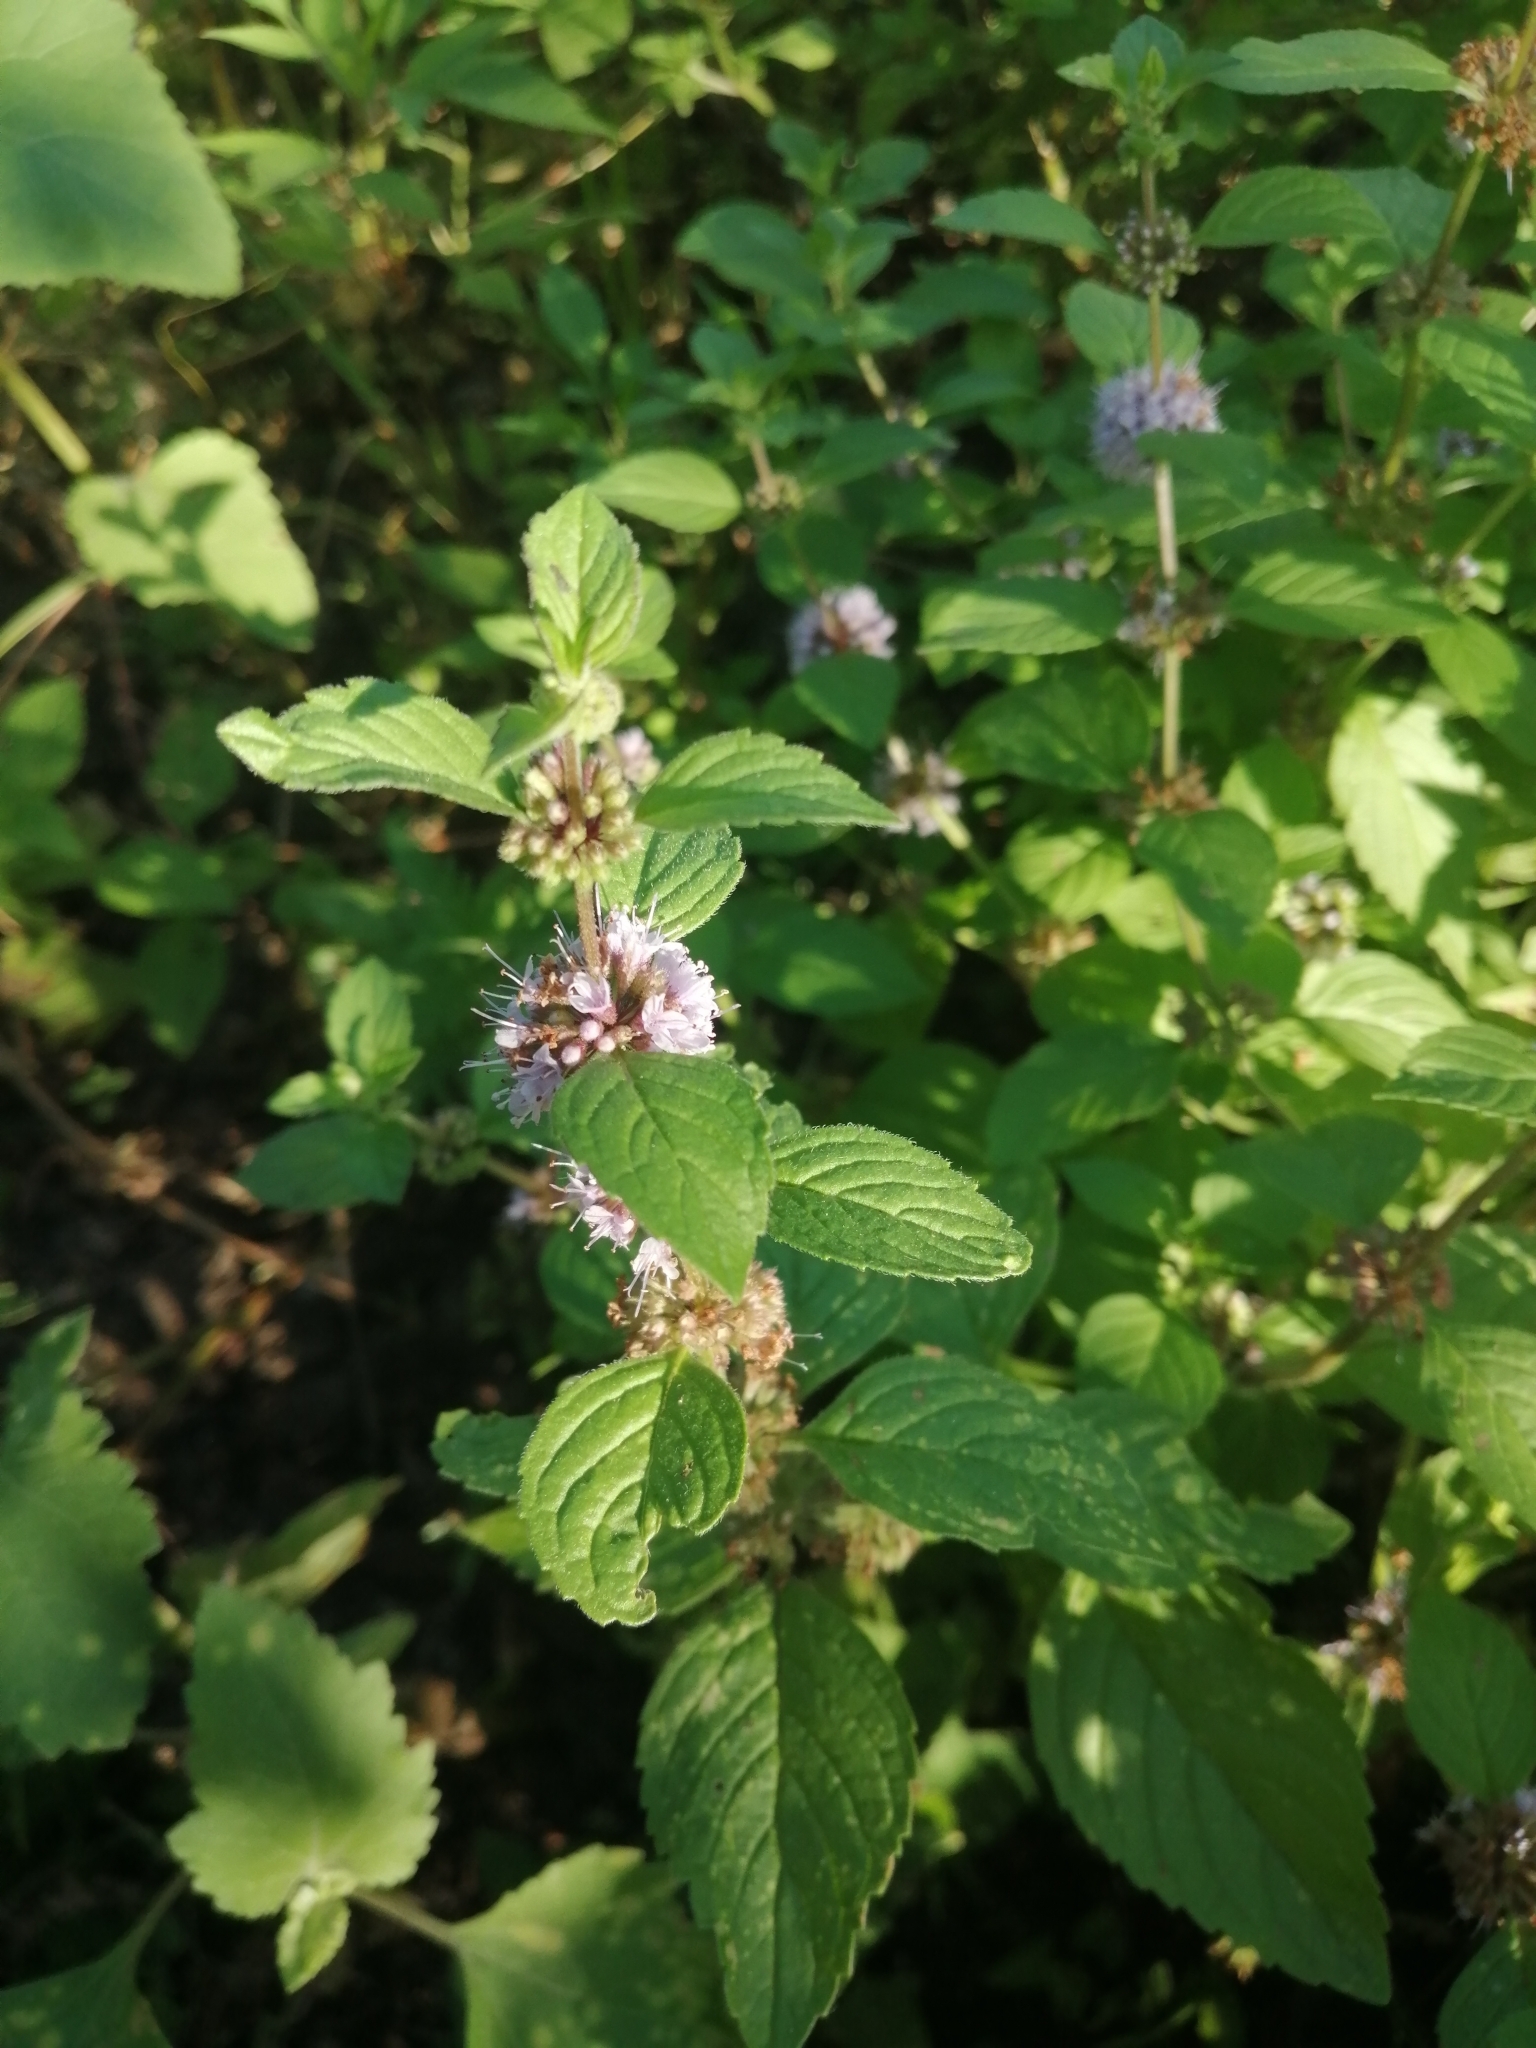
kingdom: Plantae
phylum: Tracheophyta
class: Magnoliopsida
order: Lamiales
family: Lamiaceae
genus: Mentha
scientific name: Mentha verticillata
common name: Mint
